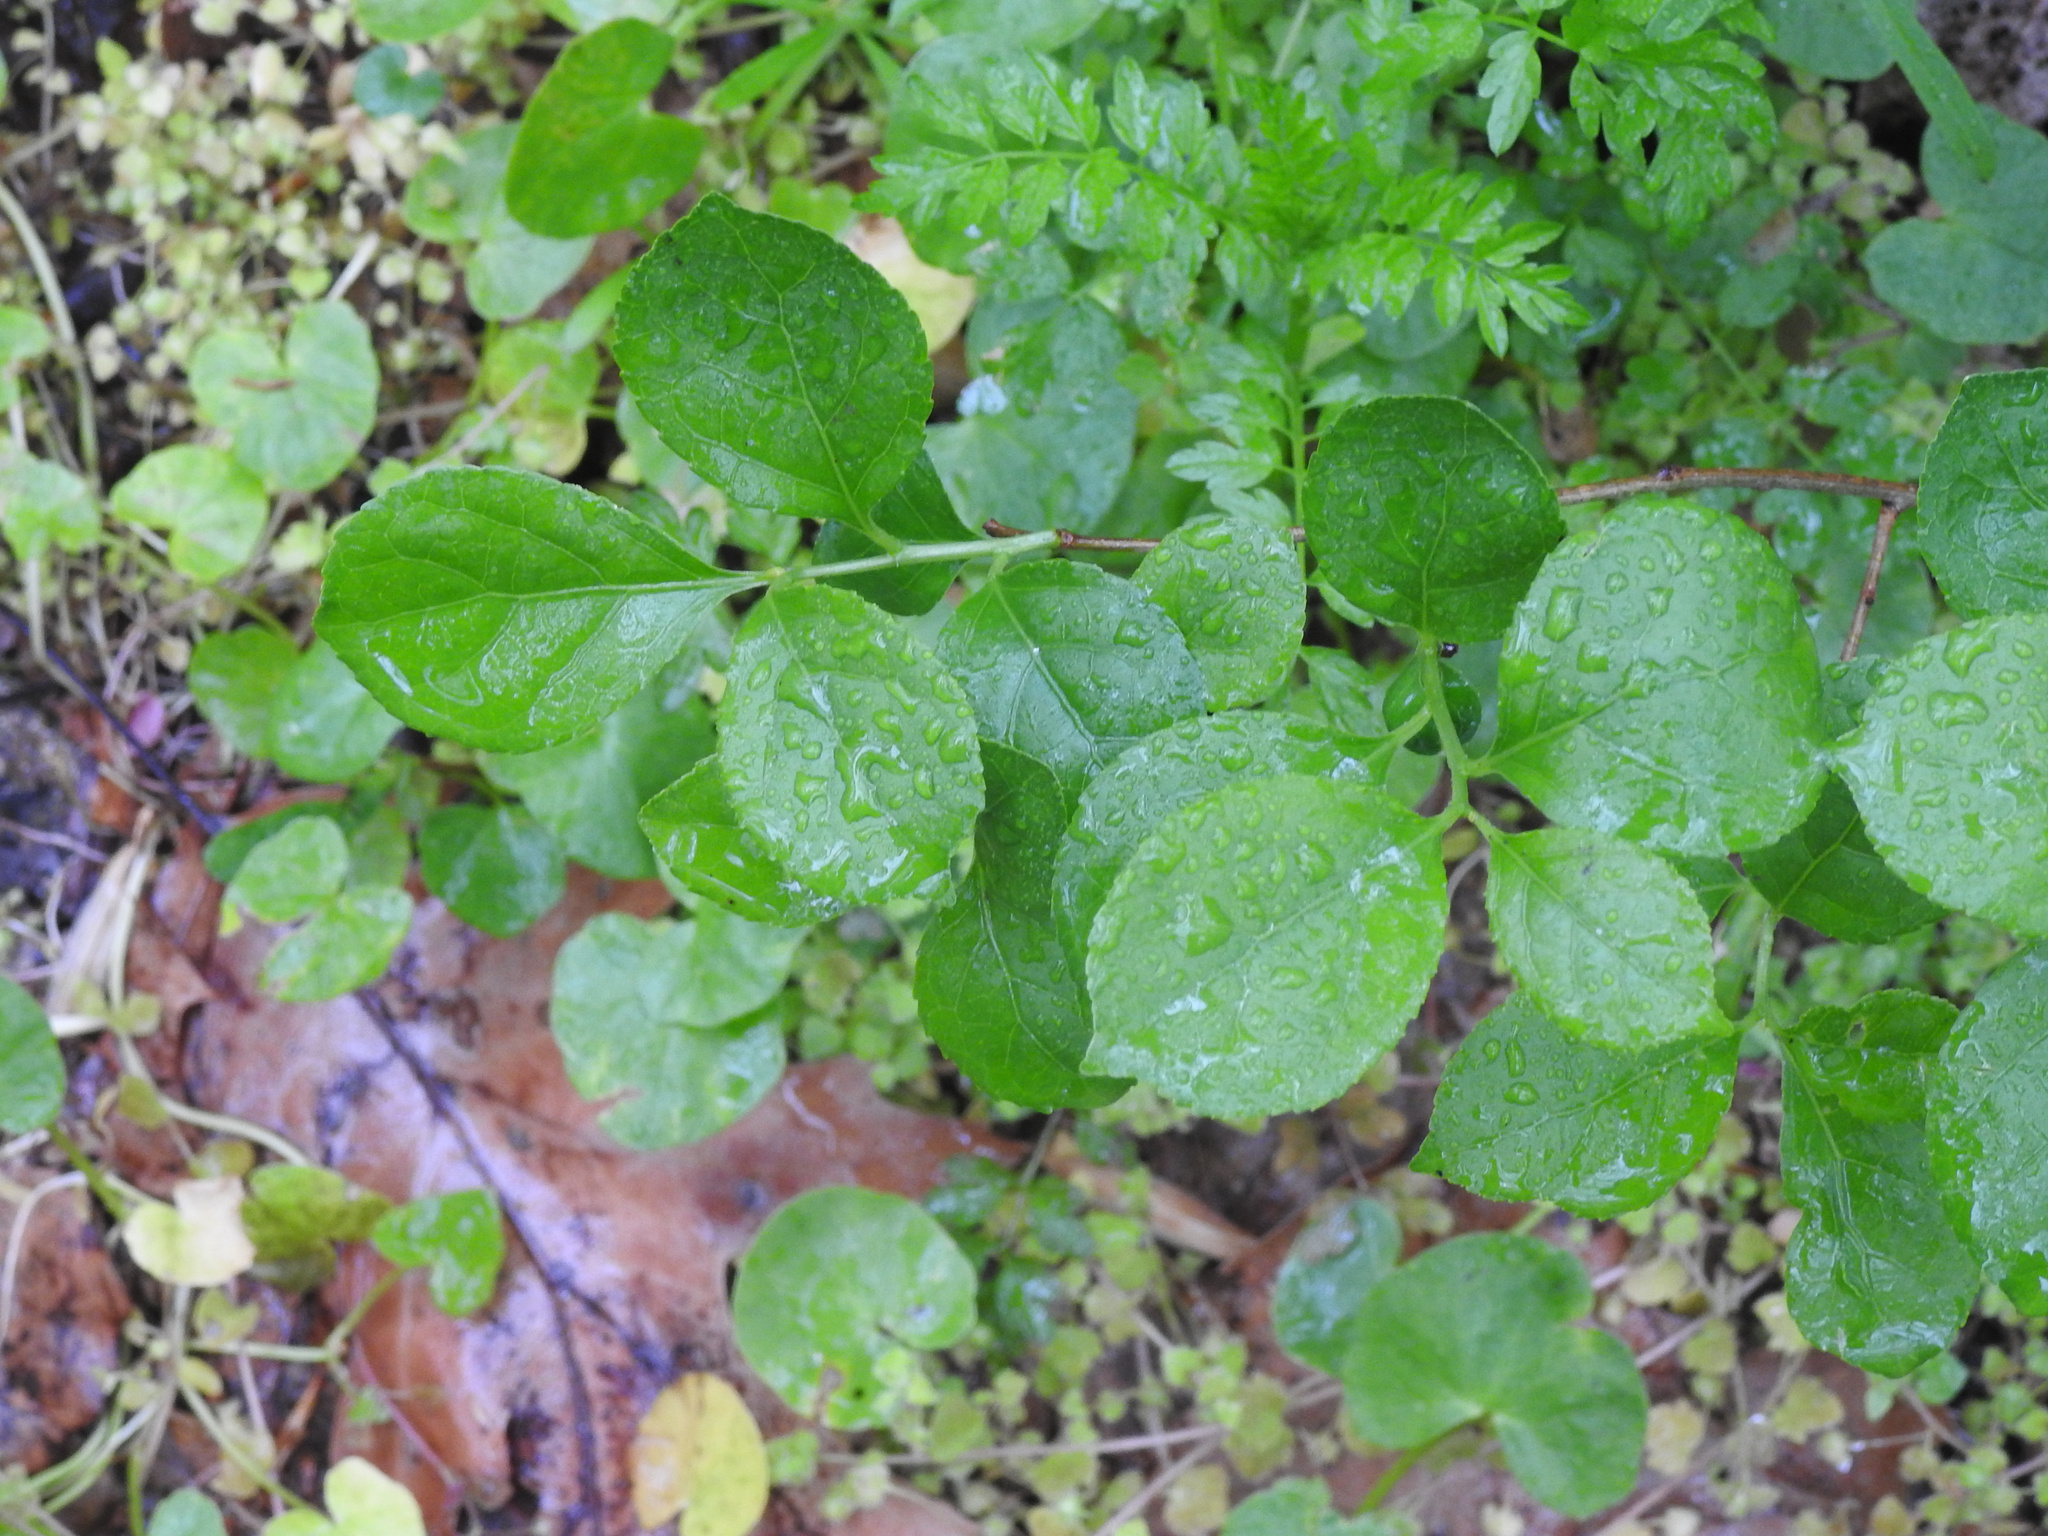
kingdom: Plantae
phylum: Tracheophyta
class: Magnoliopsida
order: Celastrales
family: Celastraceae
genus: Celastrus
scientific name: Celastrus orbiculatus
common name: Oriental bittersweet
